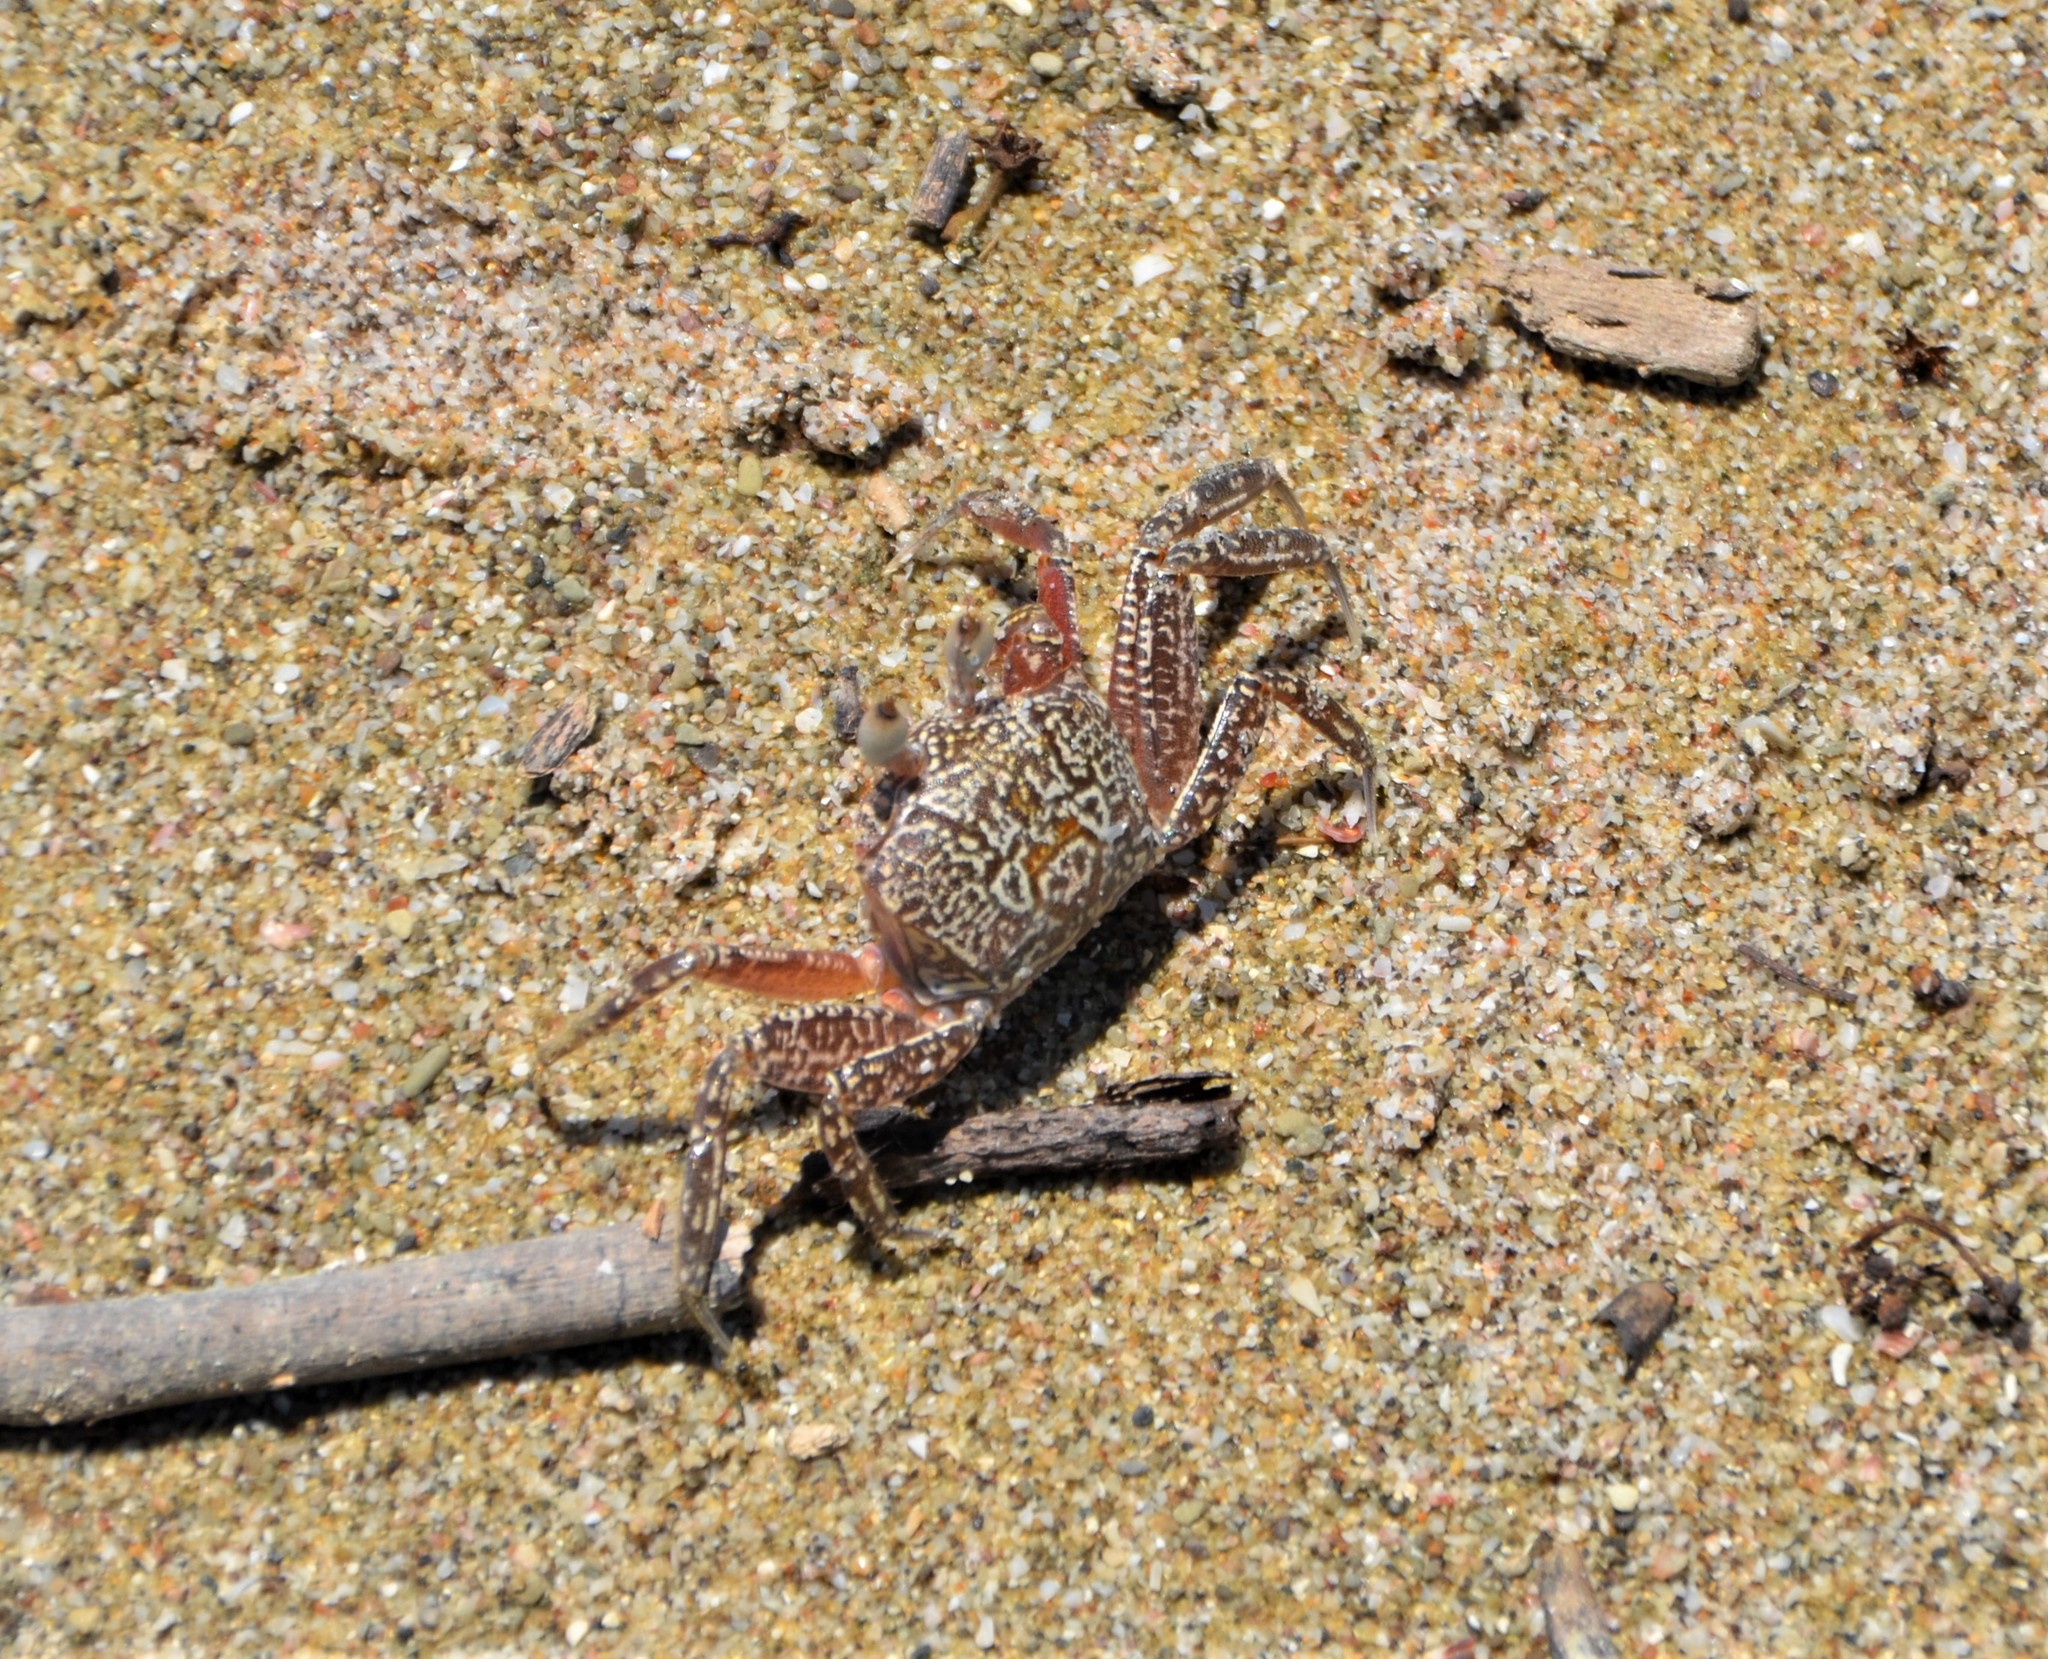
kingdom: Animalia
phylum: Arthropoda
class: Malacostraca
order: Decapoda
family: Ocypodidae
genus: Ocypode
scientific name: Ocypode gaudichaudii
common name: Pacific ghost crab
